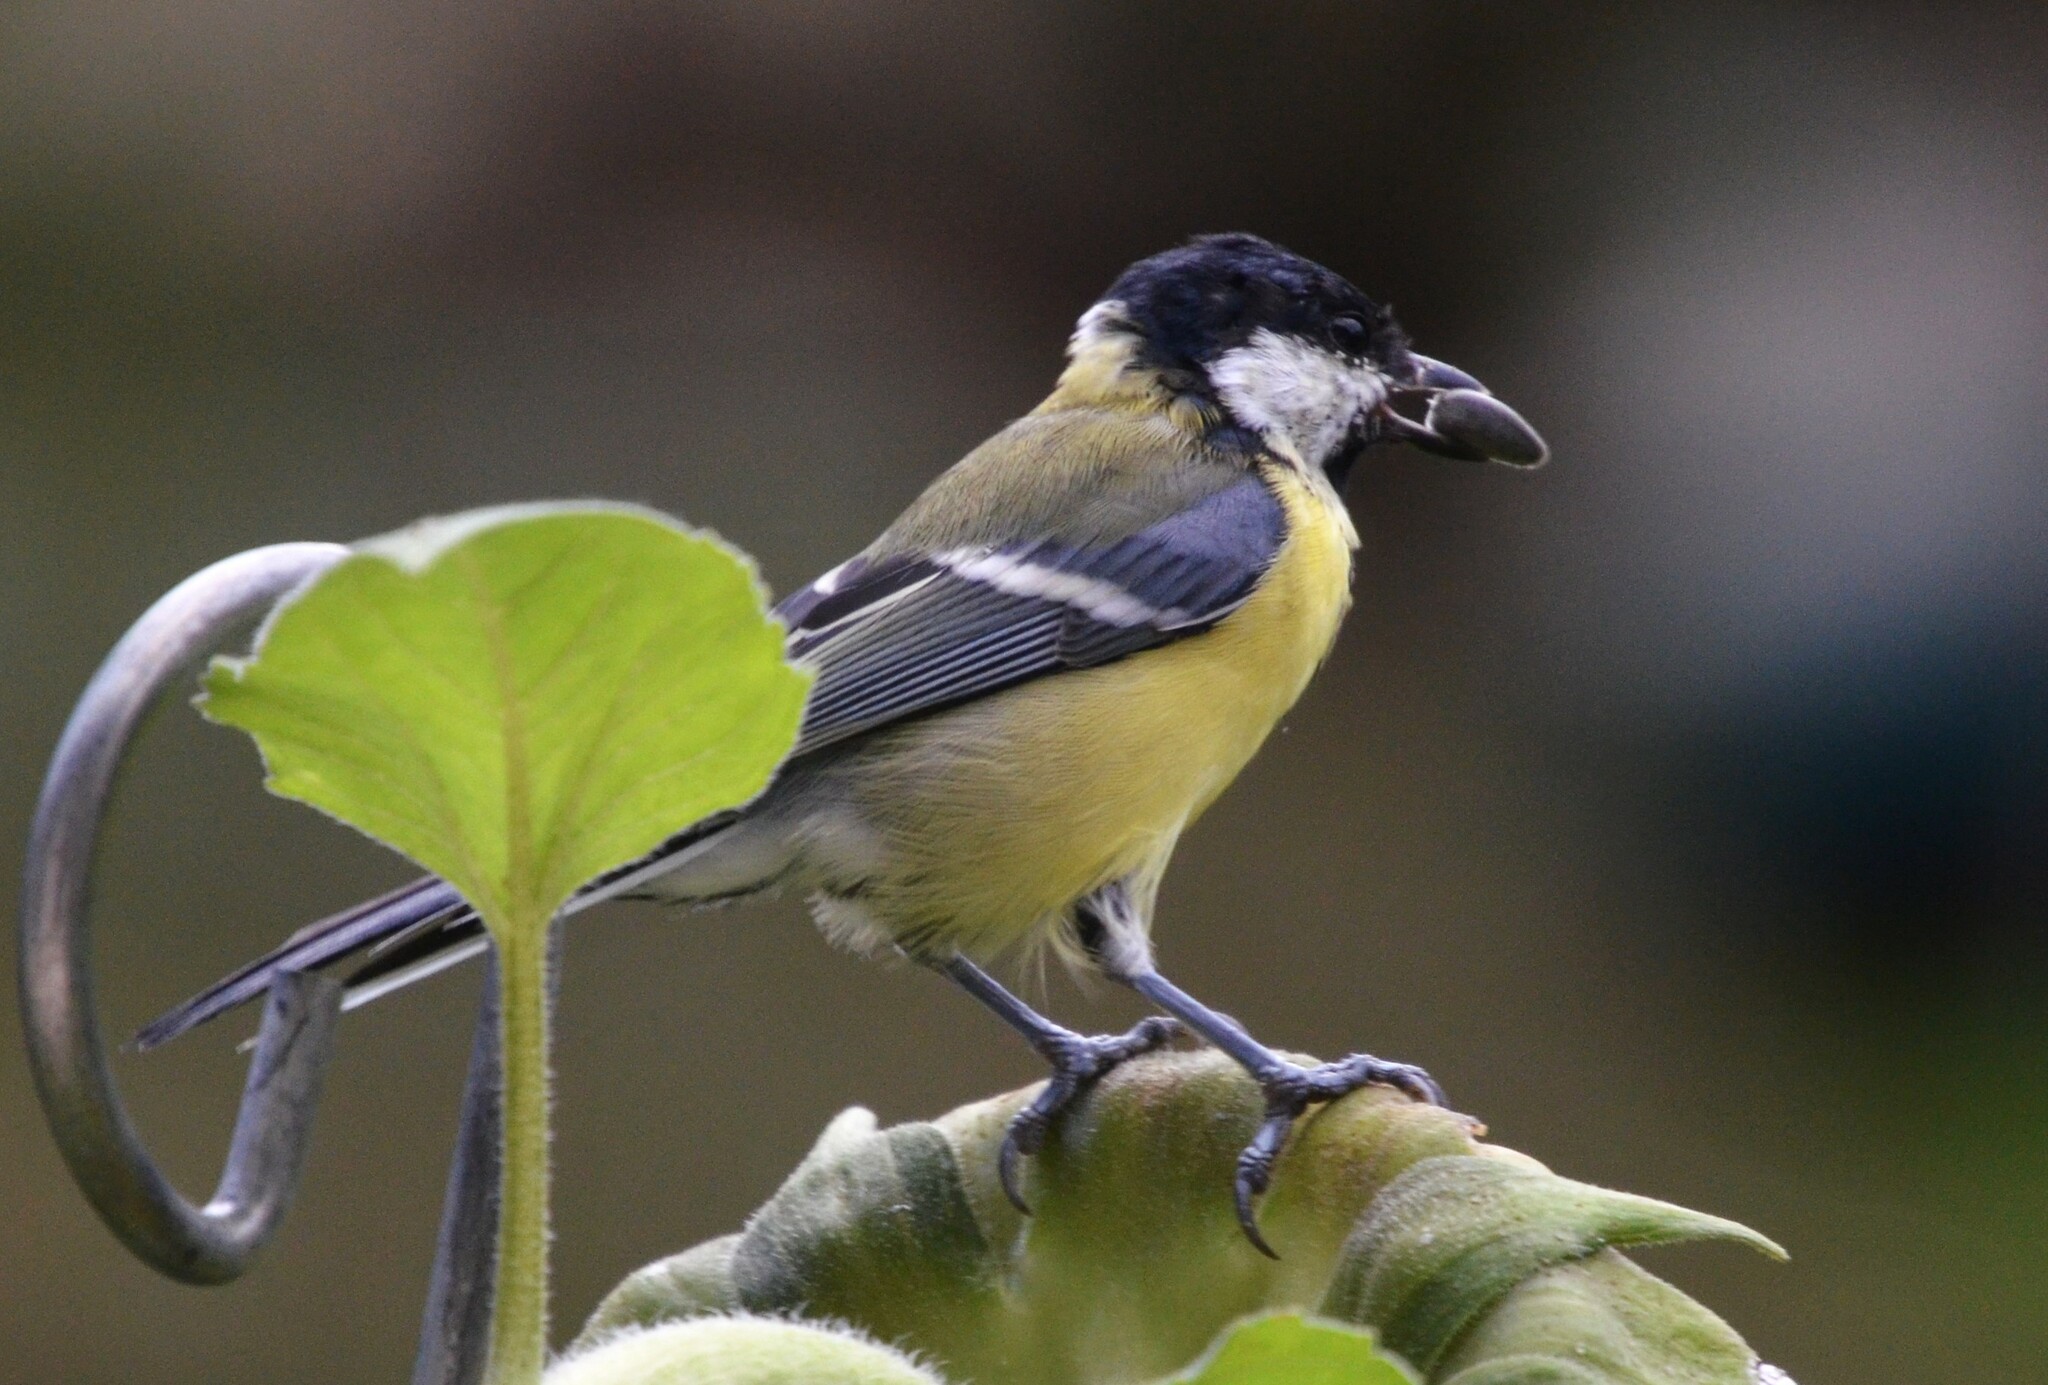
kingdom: Animalia
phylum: Chordata
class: Aves
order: Passeriformes
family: Paridae
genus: Parus
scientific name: Parus major
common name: Great tit
